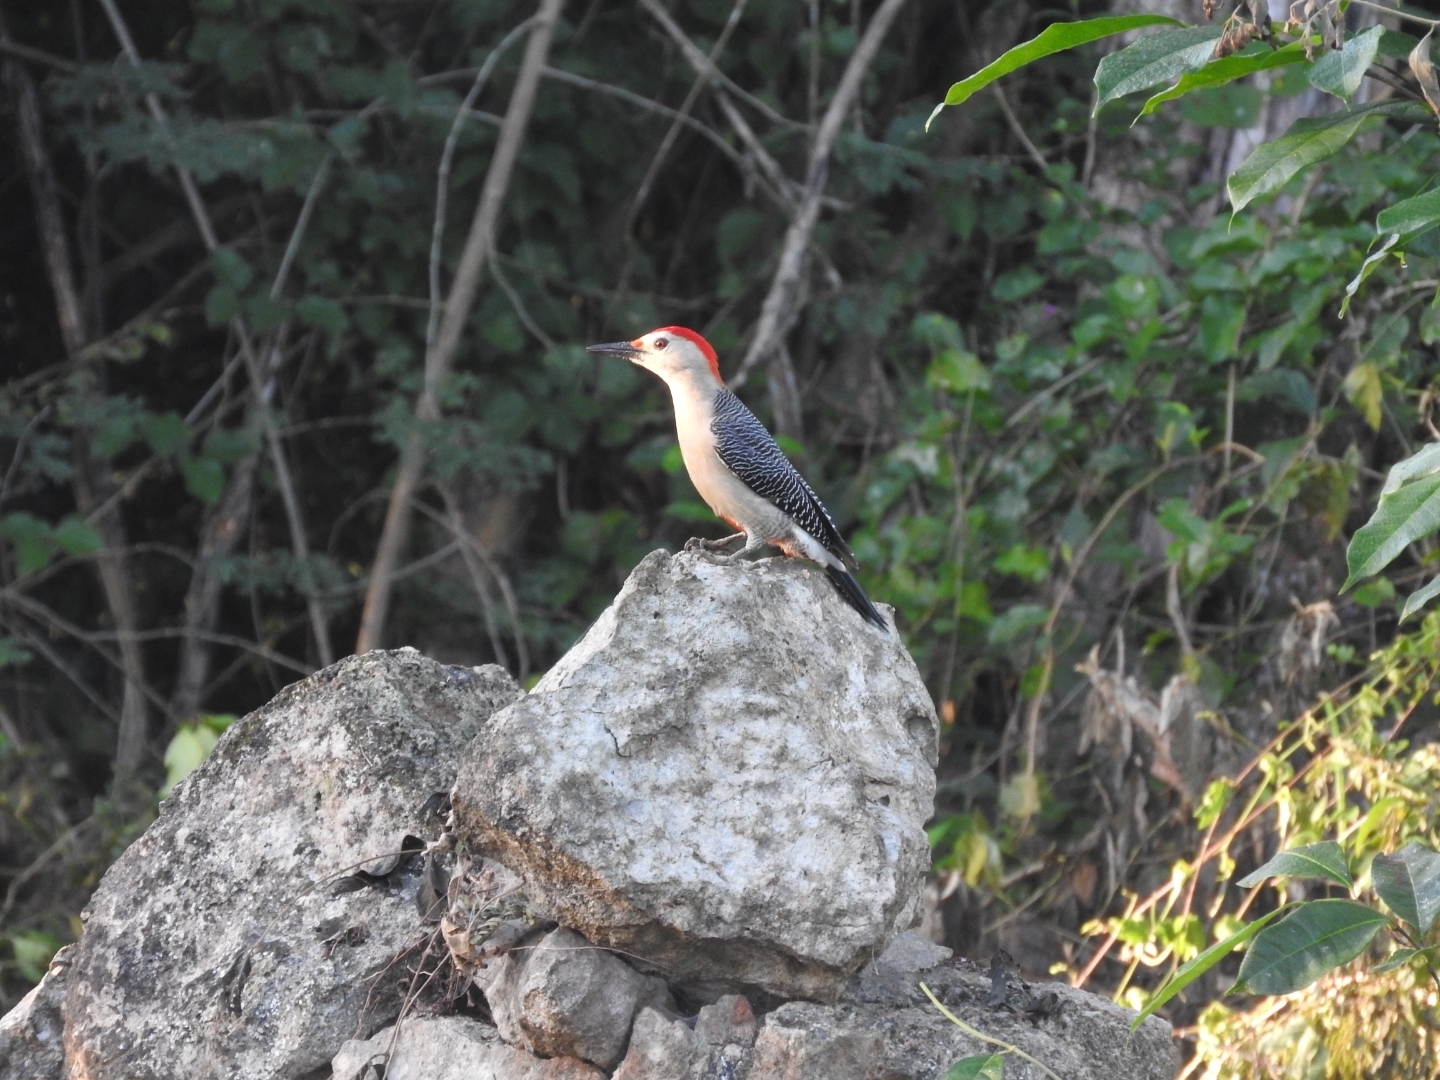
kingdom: Animalia
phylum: Chordata
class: Aves
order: Piciformes
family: Picidae
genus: Melanerpes
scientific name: Melanerpes aurifrons
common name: Golden-fronted woodpecker
